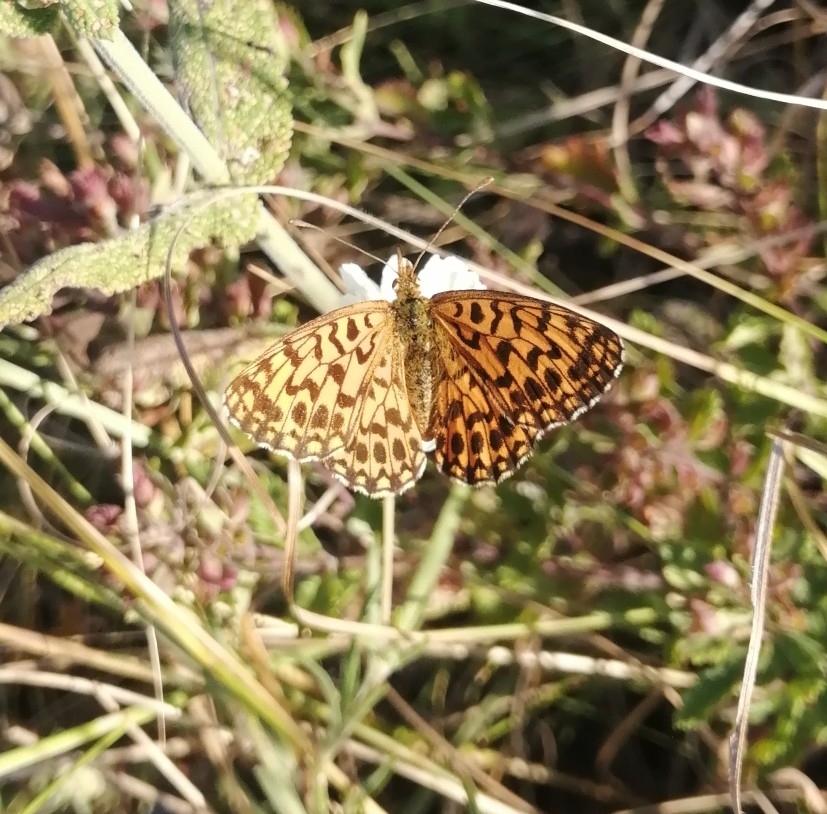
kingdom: Animalia
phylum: Arthropoda
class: Insecta
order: Lepidoptera
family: Nymphalidae
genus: Boloria
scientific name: Boloria dia
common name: Weaver's fritillary
